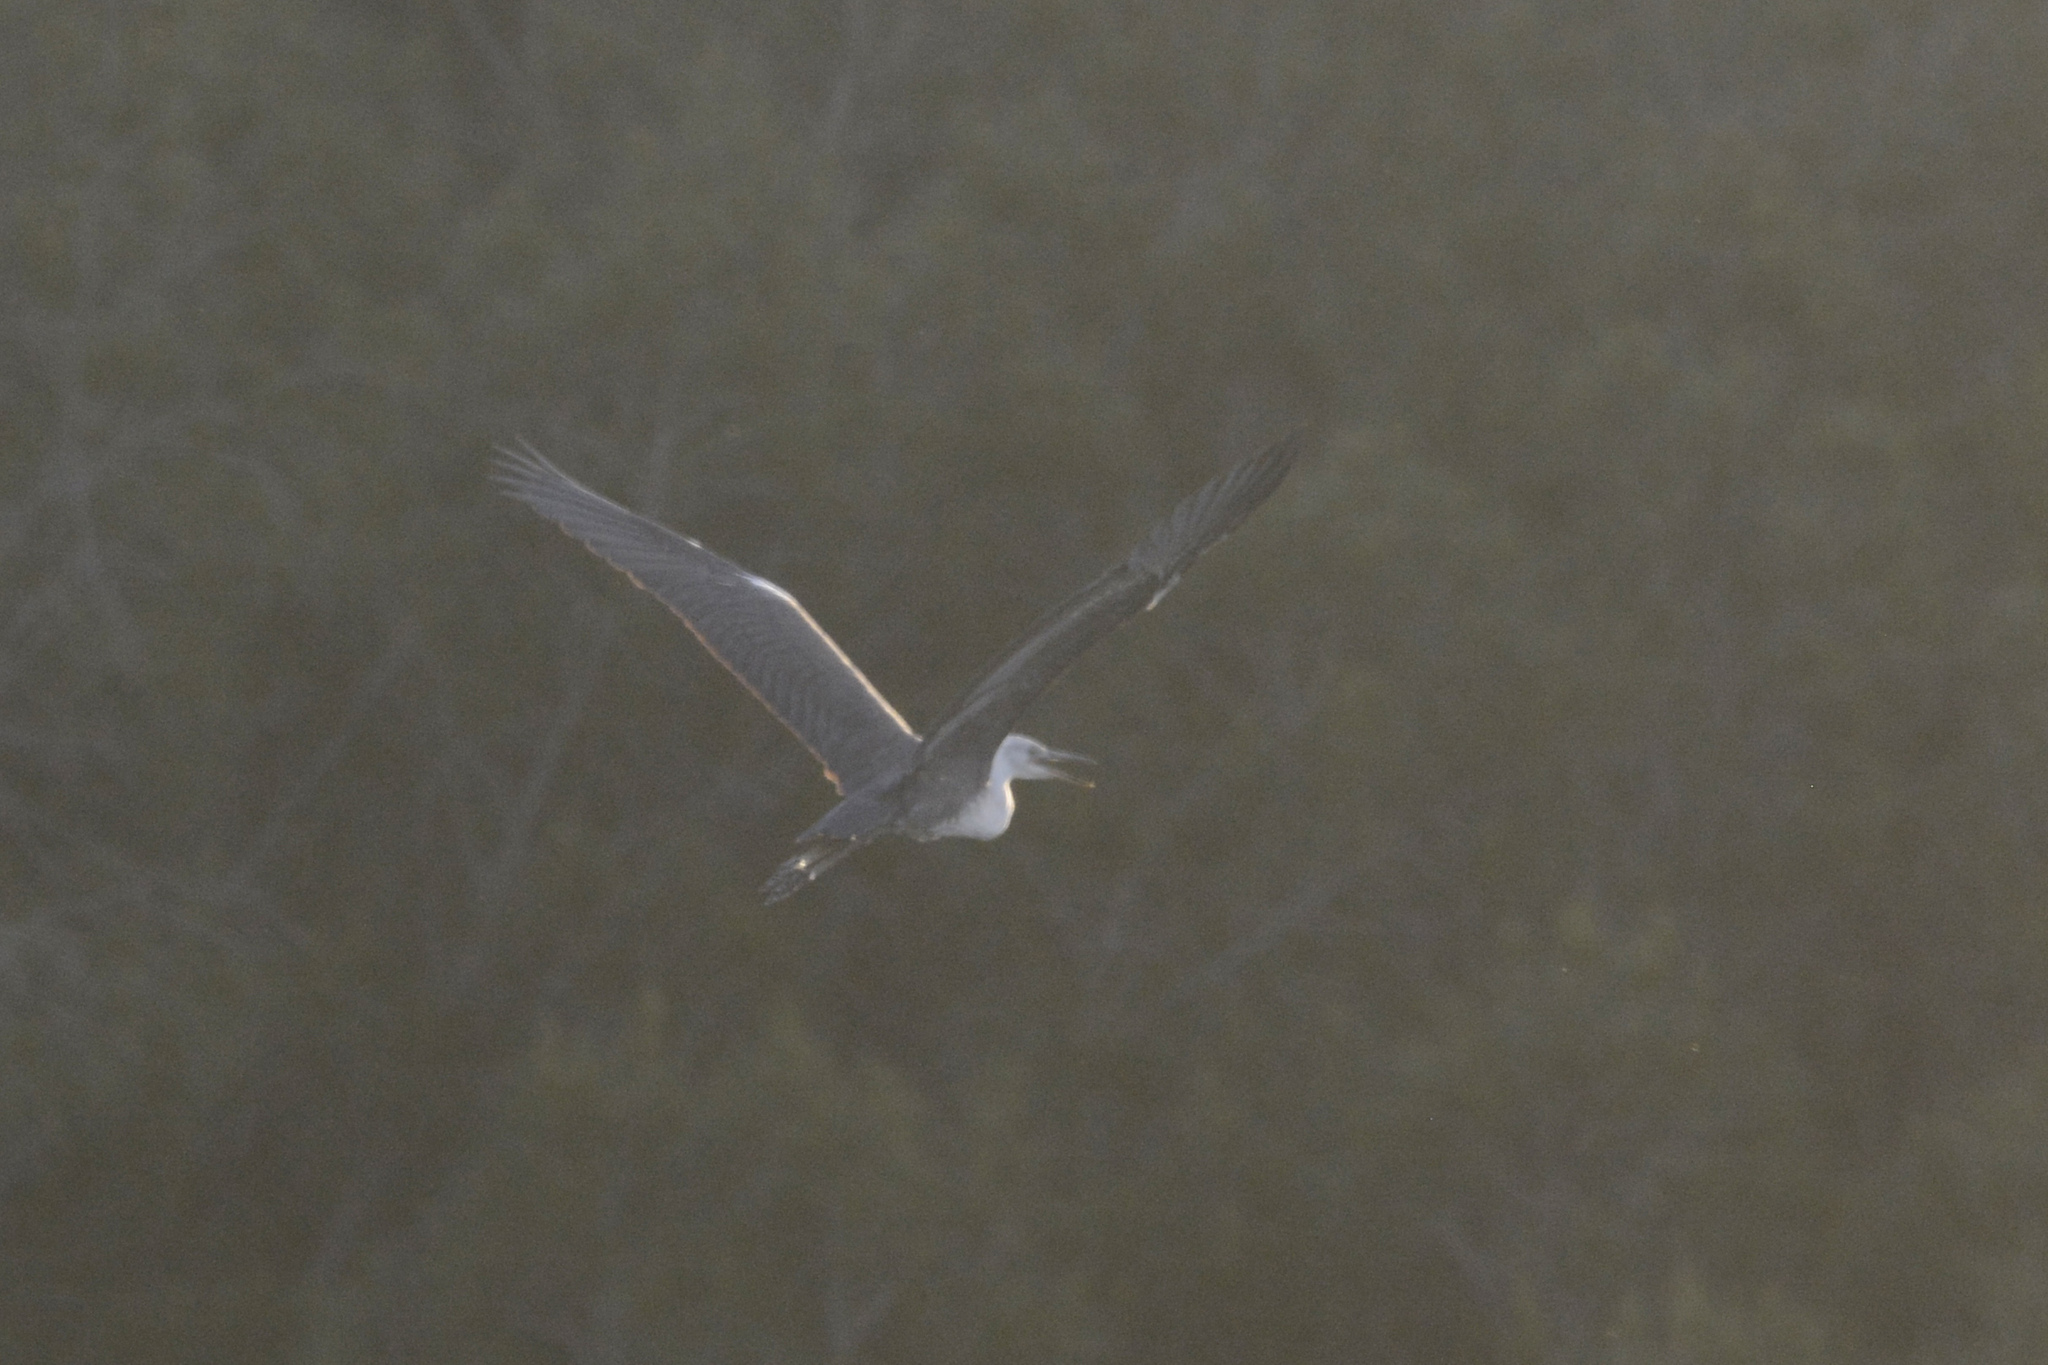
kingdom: Animalia
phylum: Chordata
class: Aves
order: Pelecaniformes
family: Ardeidae
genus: Ardea
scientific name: Ardea pacifica
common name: White-necked heron
